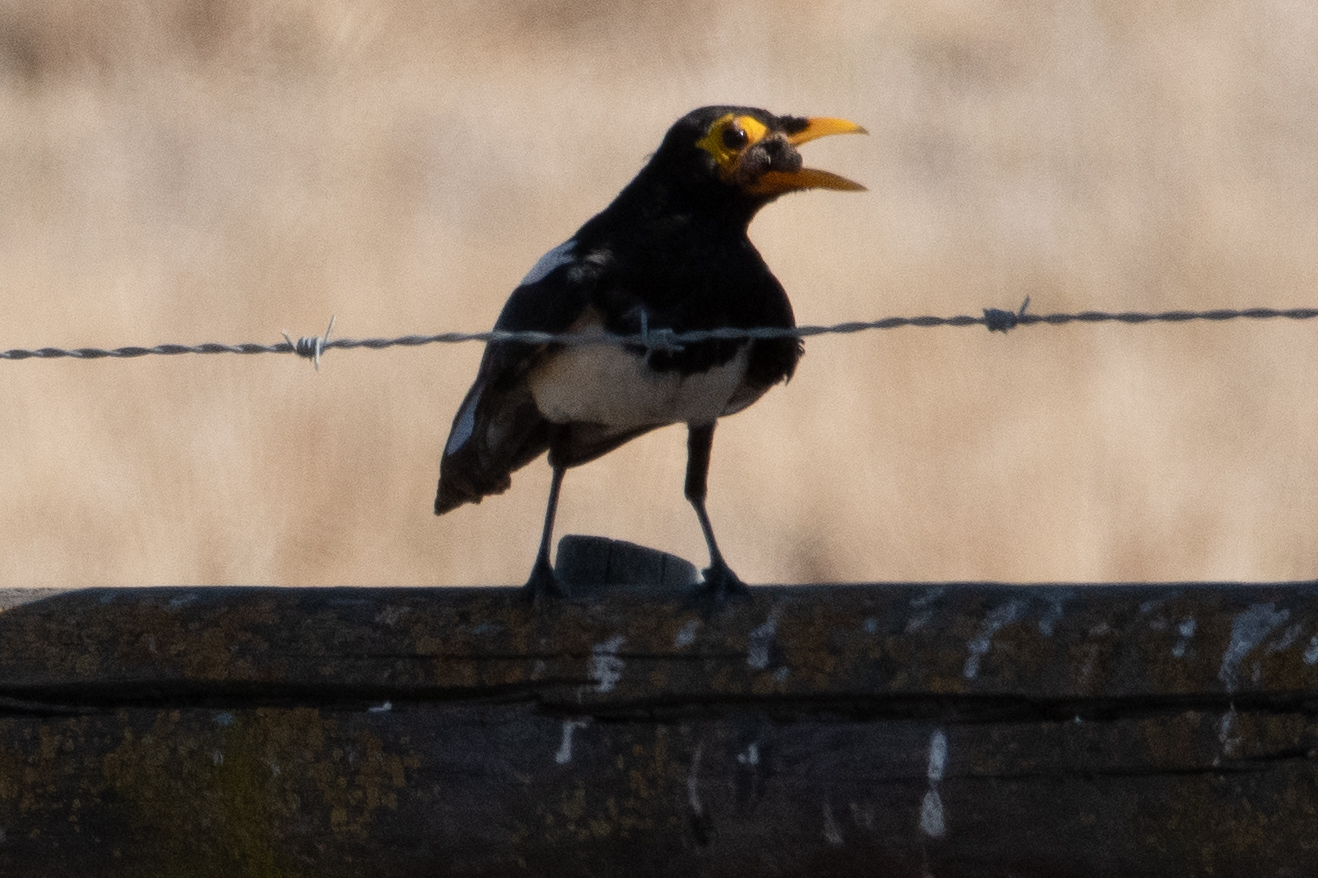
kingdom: Animalia
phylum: Chordata
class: Aves
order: Passeriformes
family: Corvidae
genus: Pica
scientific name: Pica nuttalli
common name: Yellow-billed magpie
